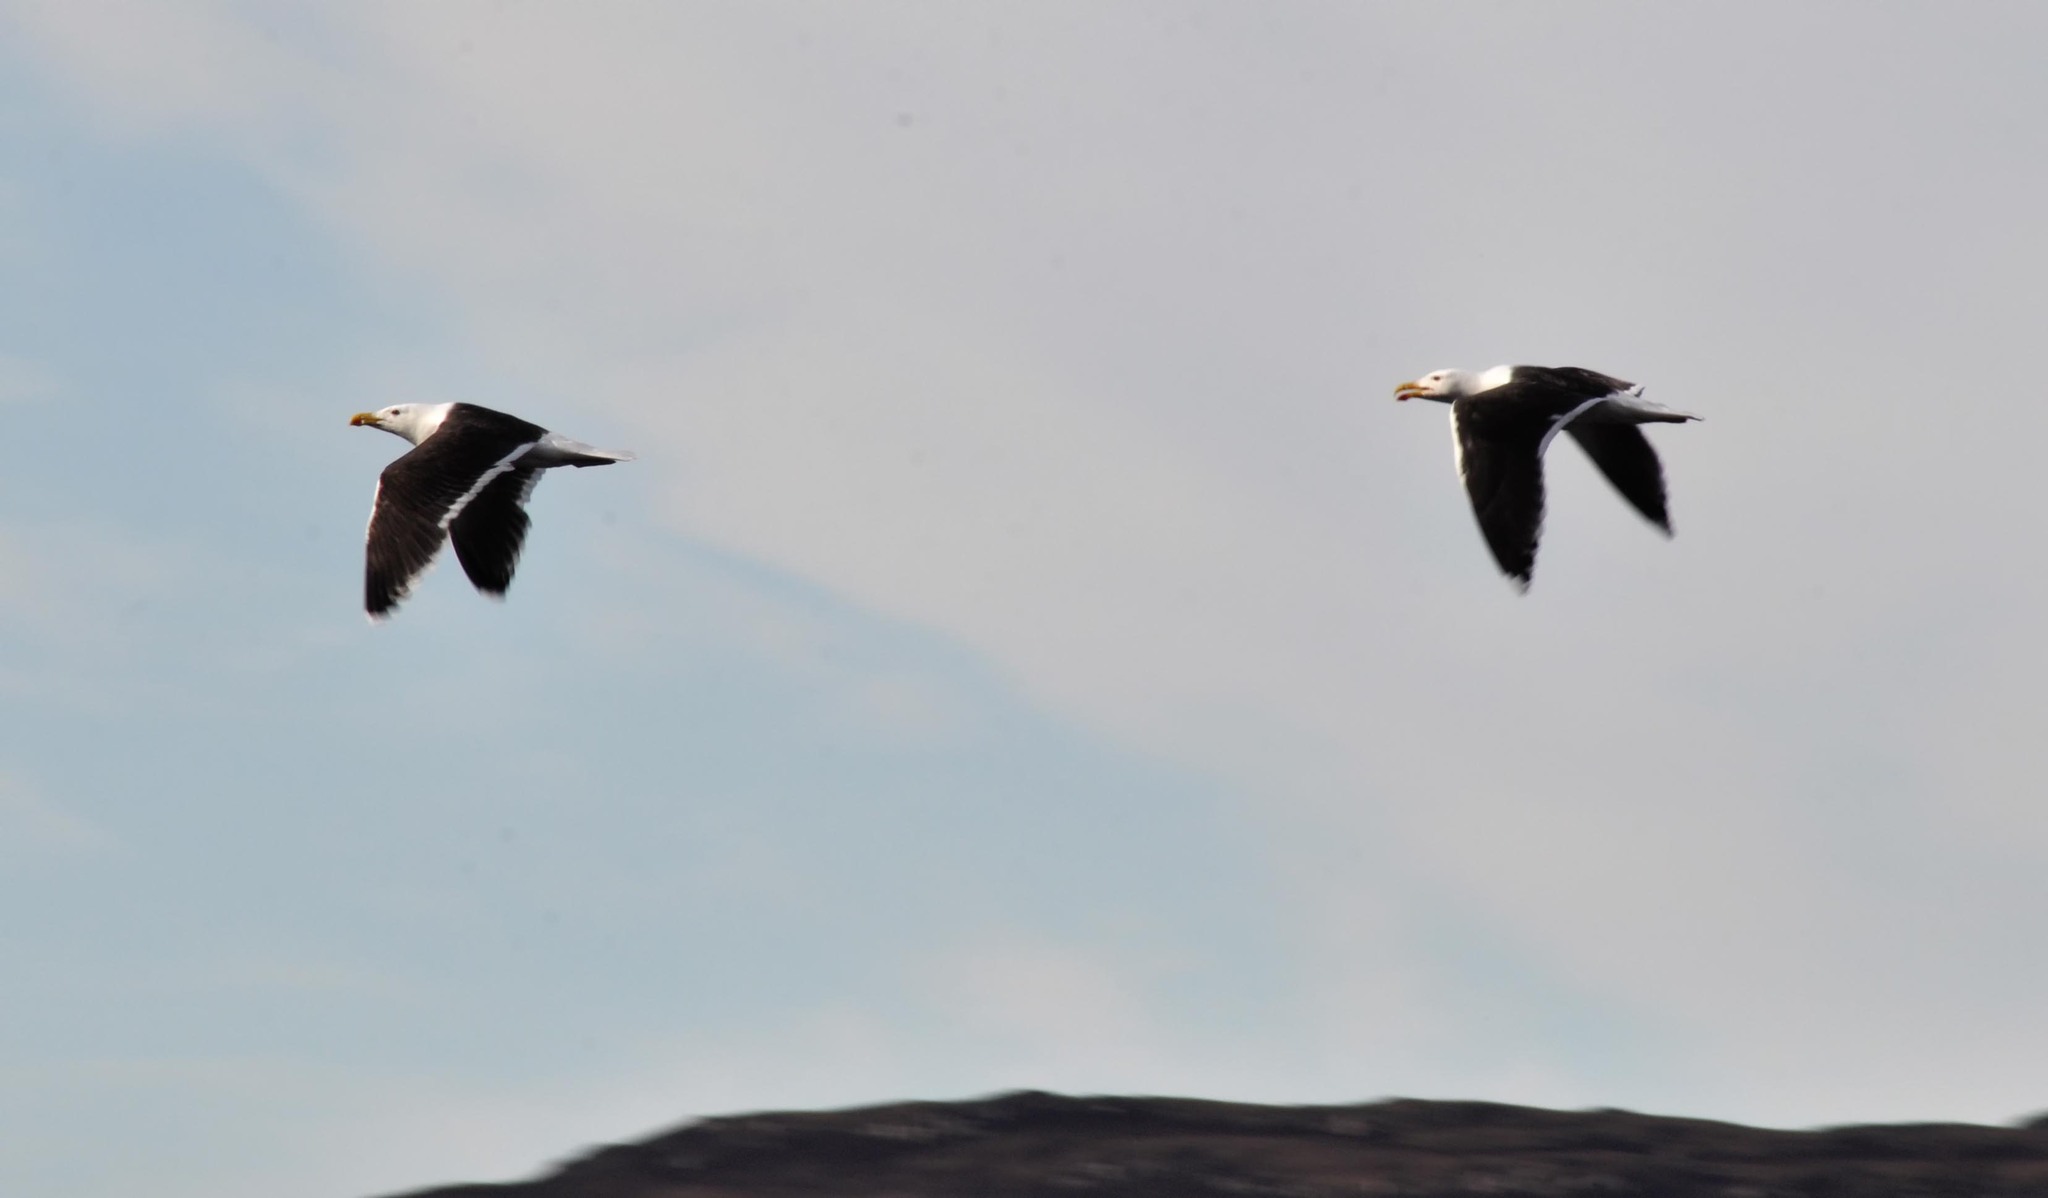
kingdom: Animalia
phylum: Chordata
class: Aves
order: Charadriiformes
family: Laridae
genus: Larus
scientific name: Larus marinus
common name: Great black-backed gull
